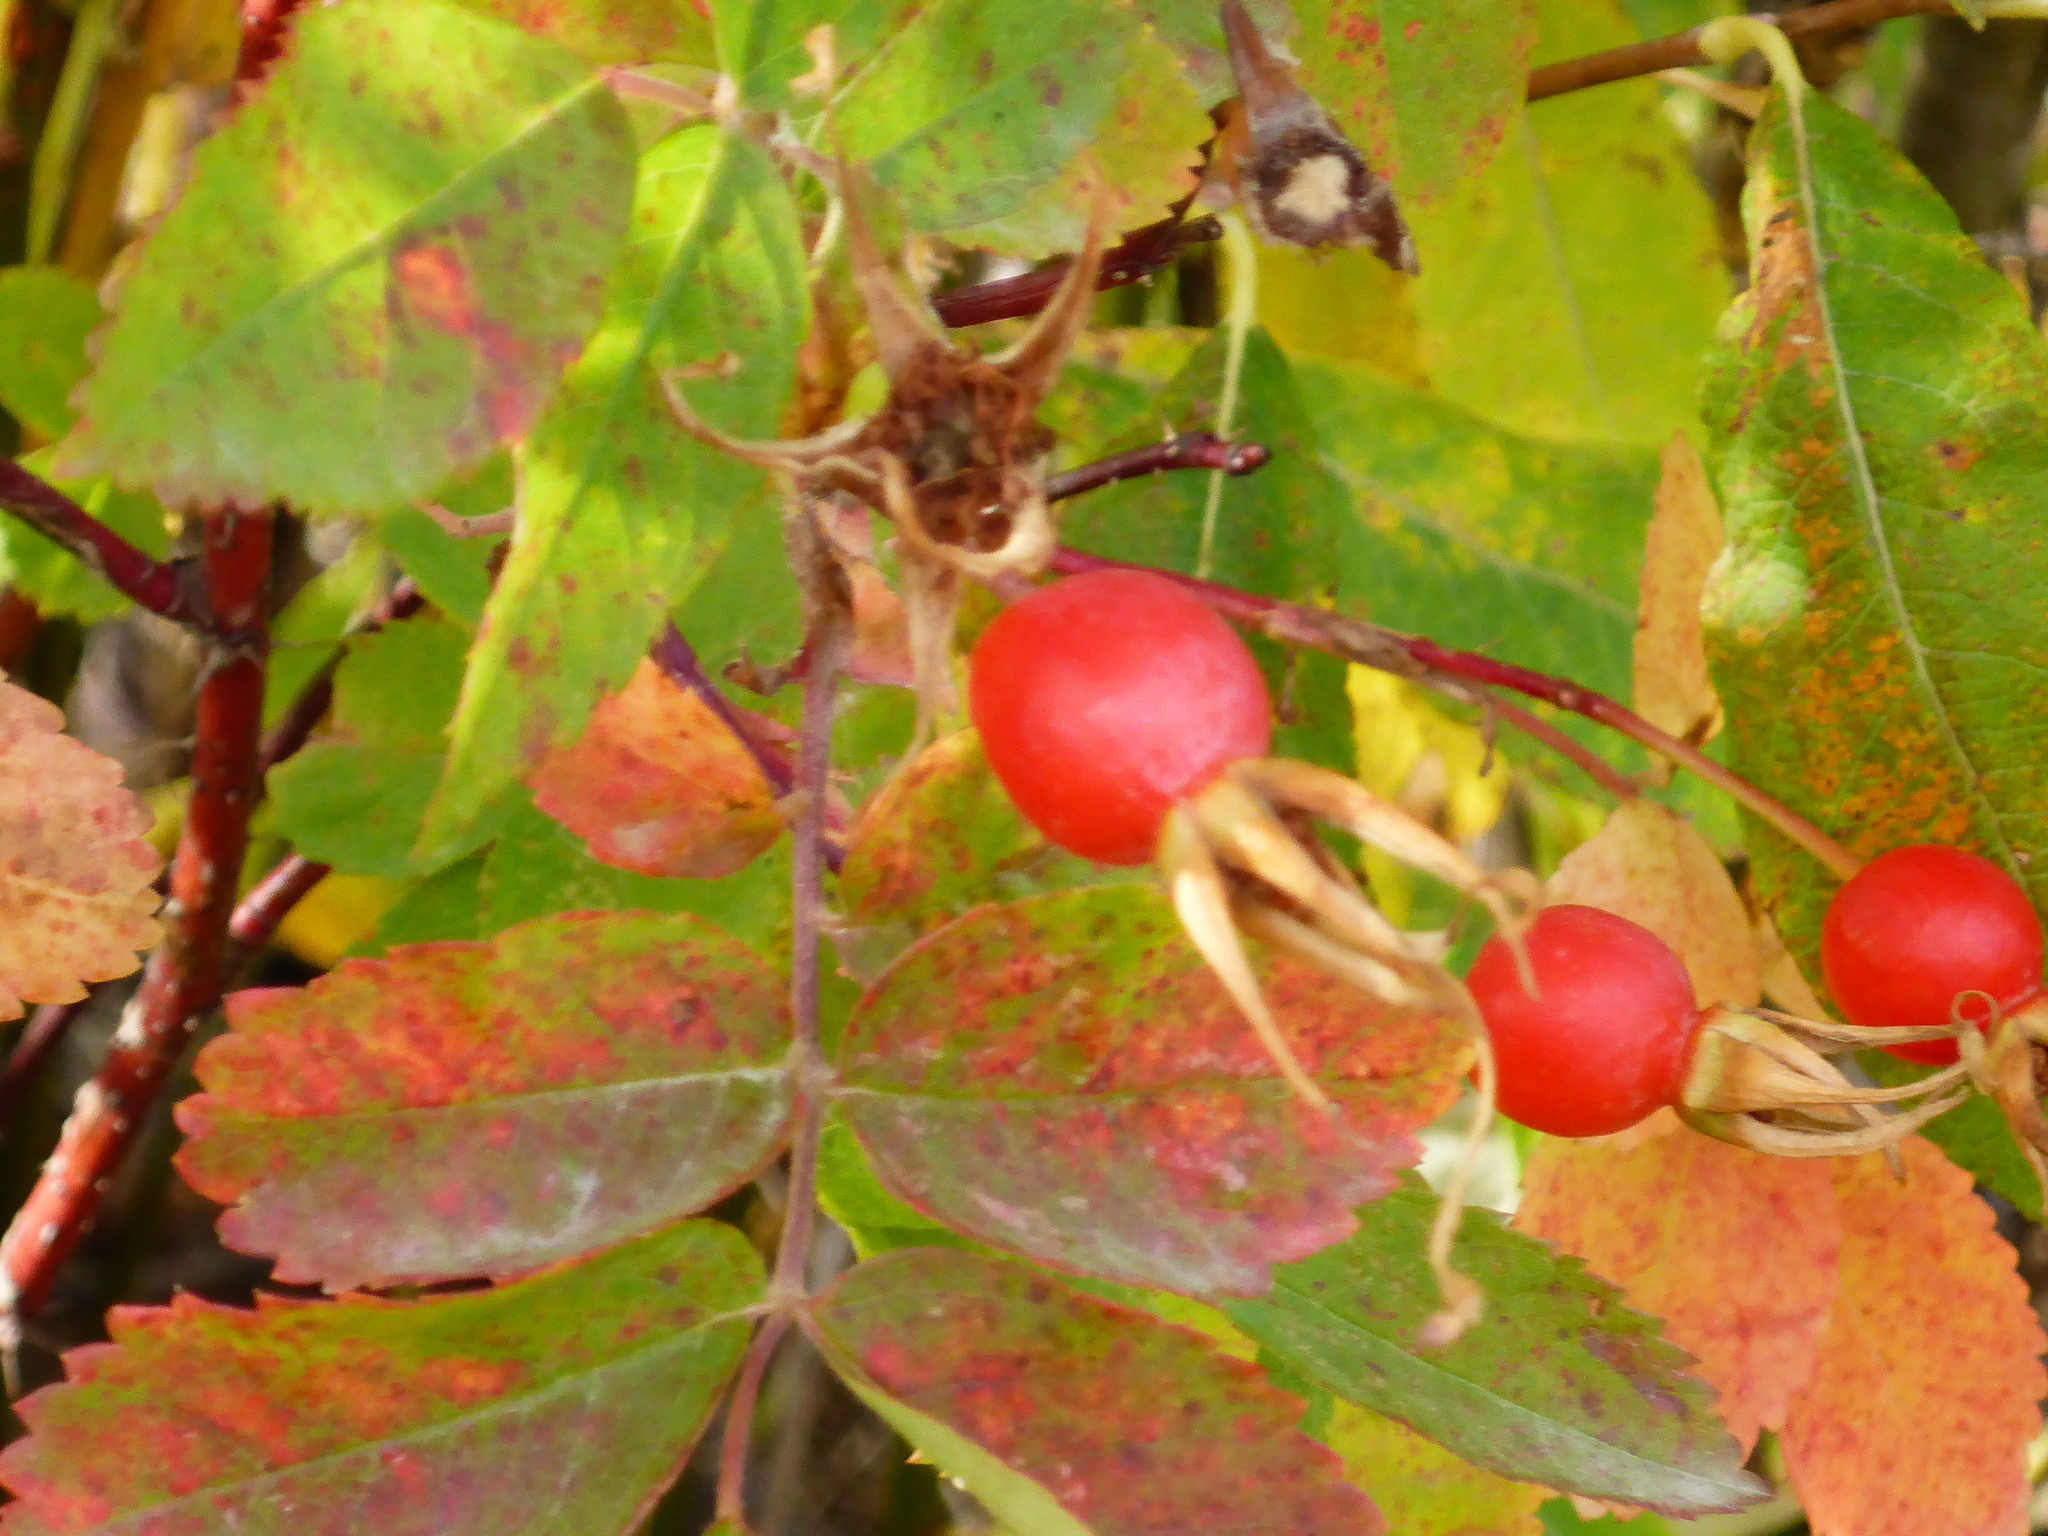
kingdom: Plantae
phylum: Tracheophyta
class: Magnoliopsida
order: Rosales
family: Rosaceae
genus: Rosa
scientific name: Rosa woodsii
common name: Woods's rose
